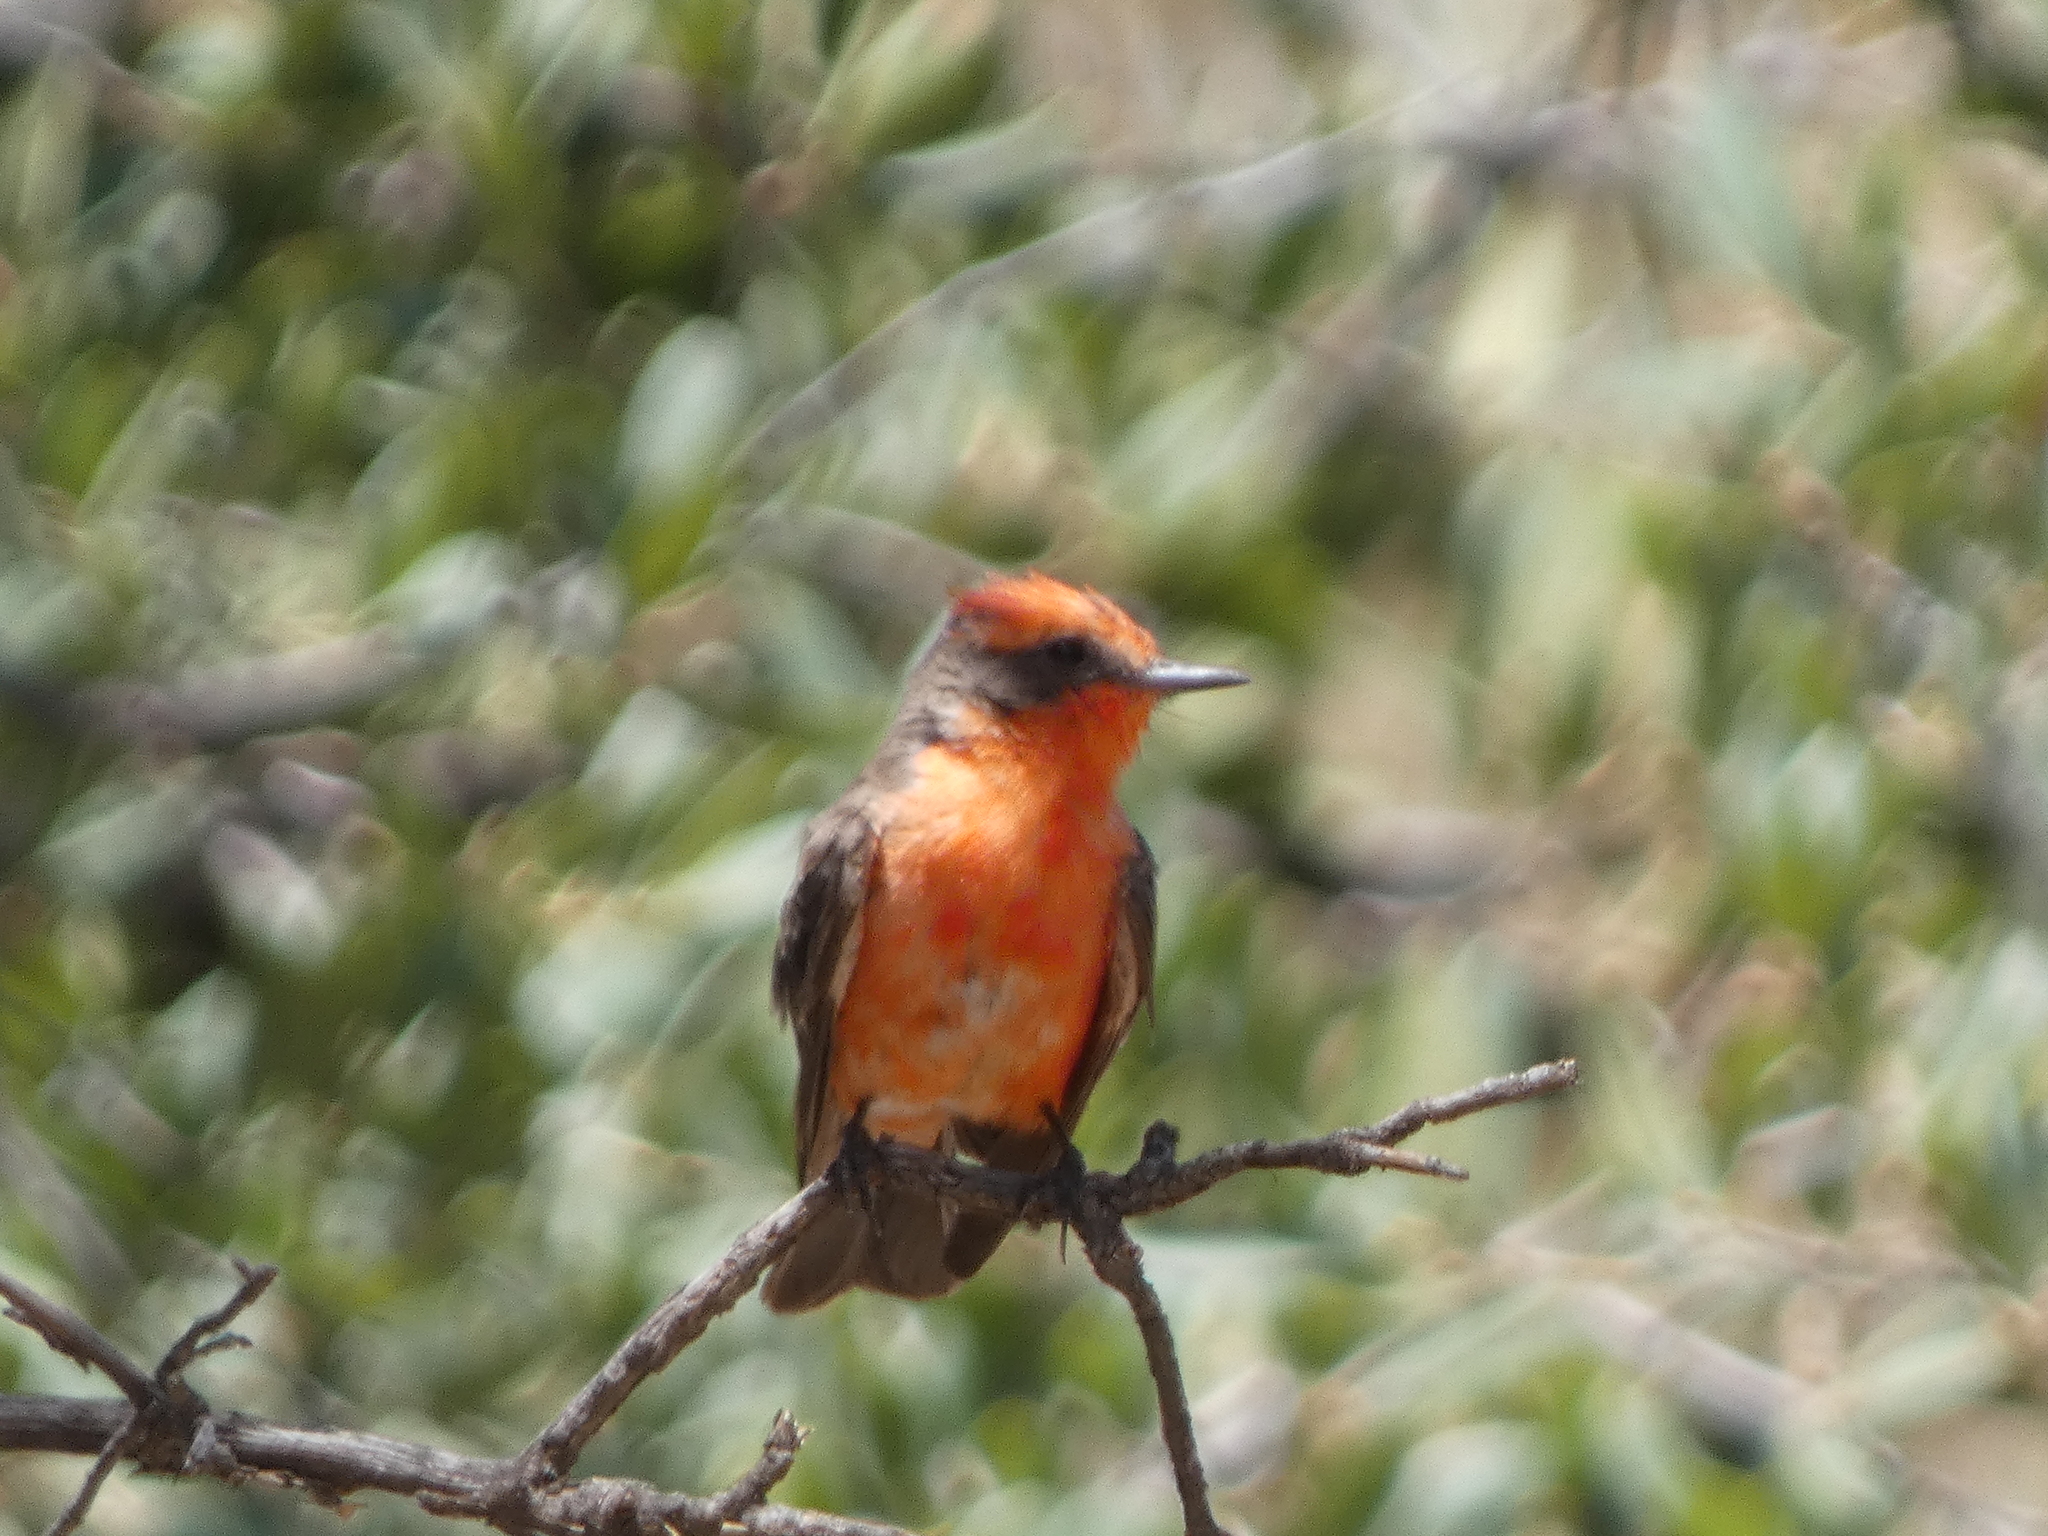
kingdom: Animalia
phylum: Chordata
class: Aves
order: Passeriformes
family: Tyrannidae
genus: Pyrocephalus
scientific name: Pyrocephalus rubinus
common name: Vermilion flycatcher
